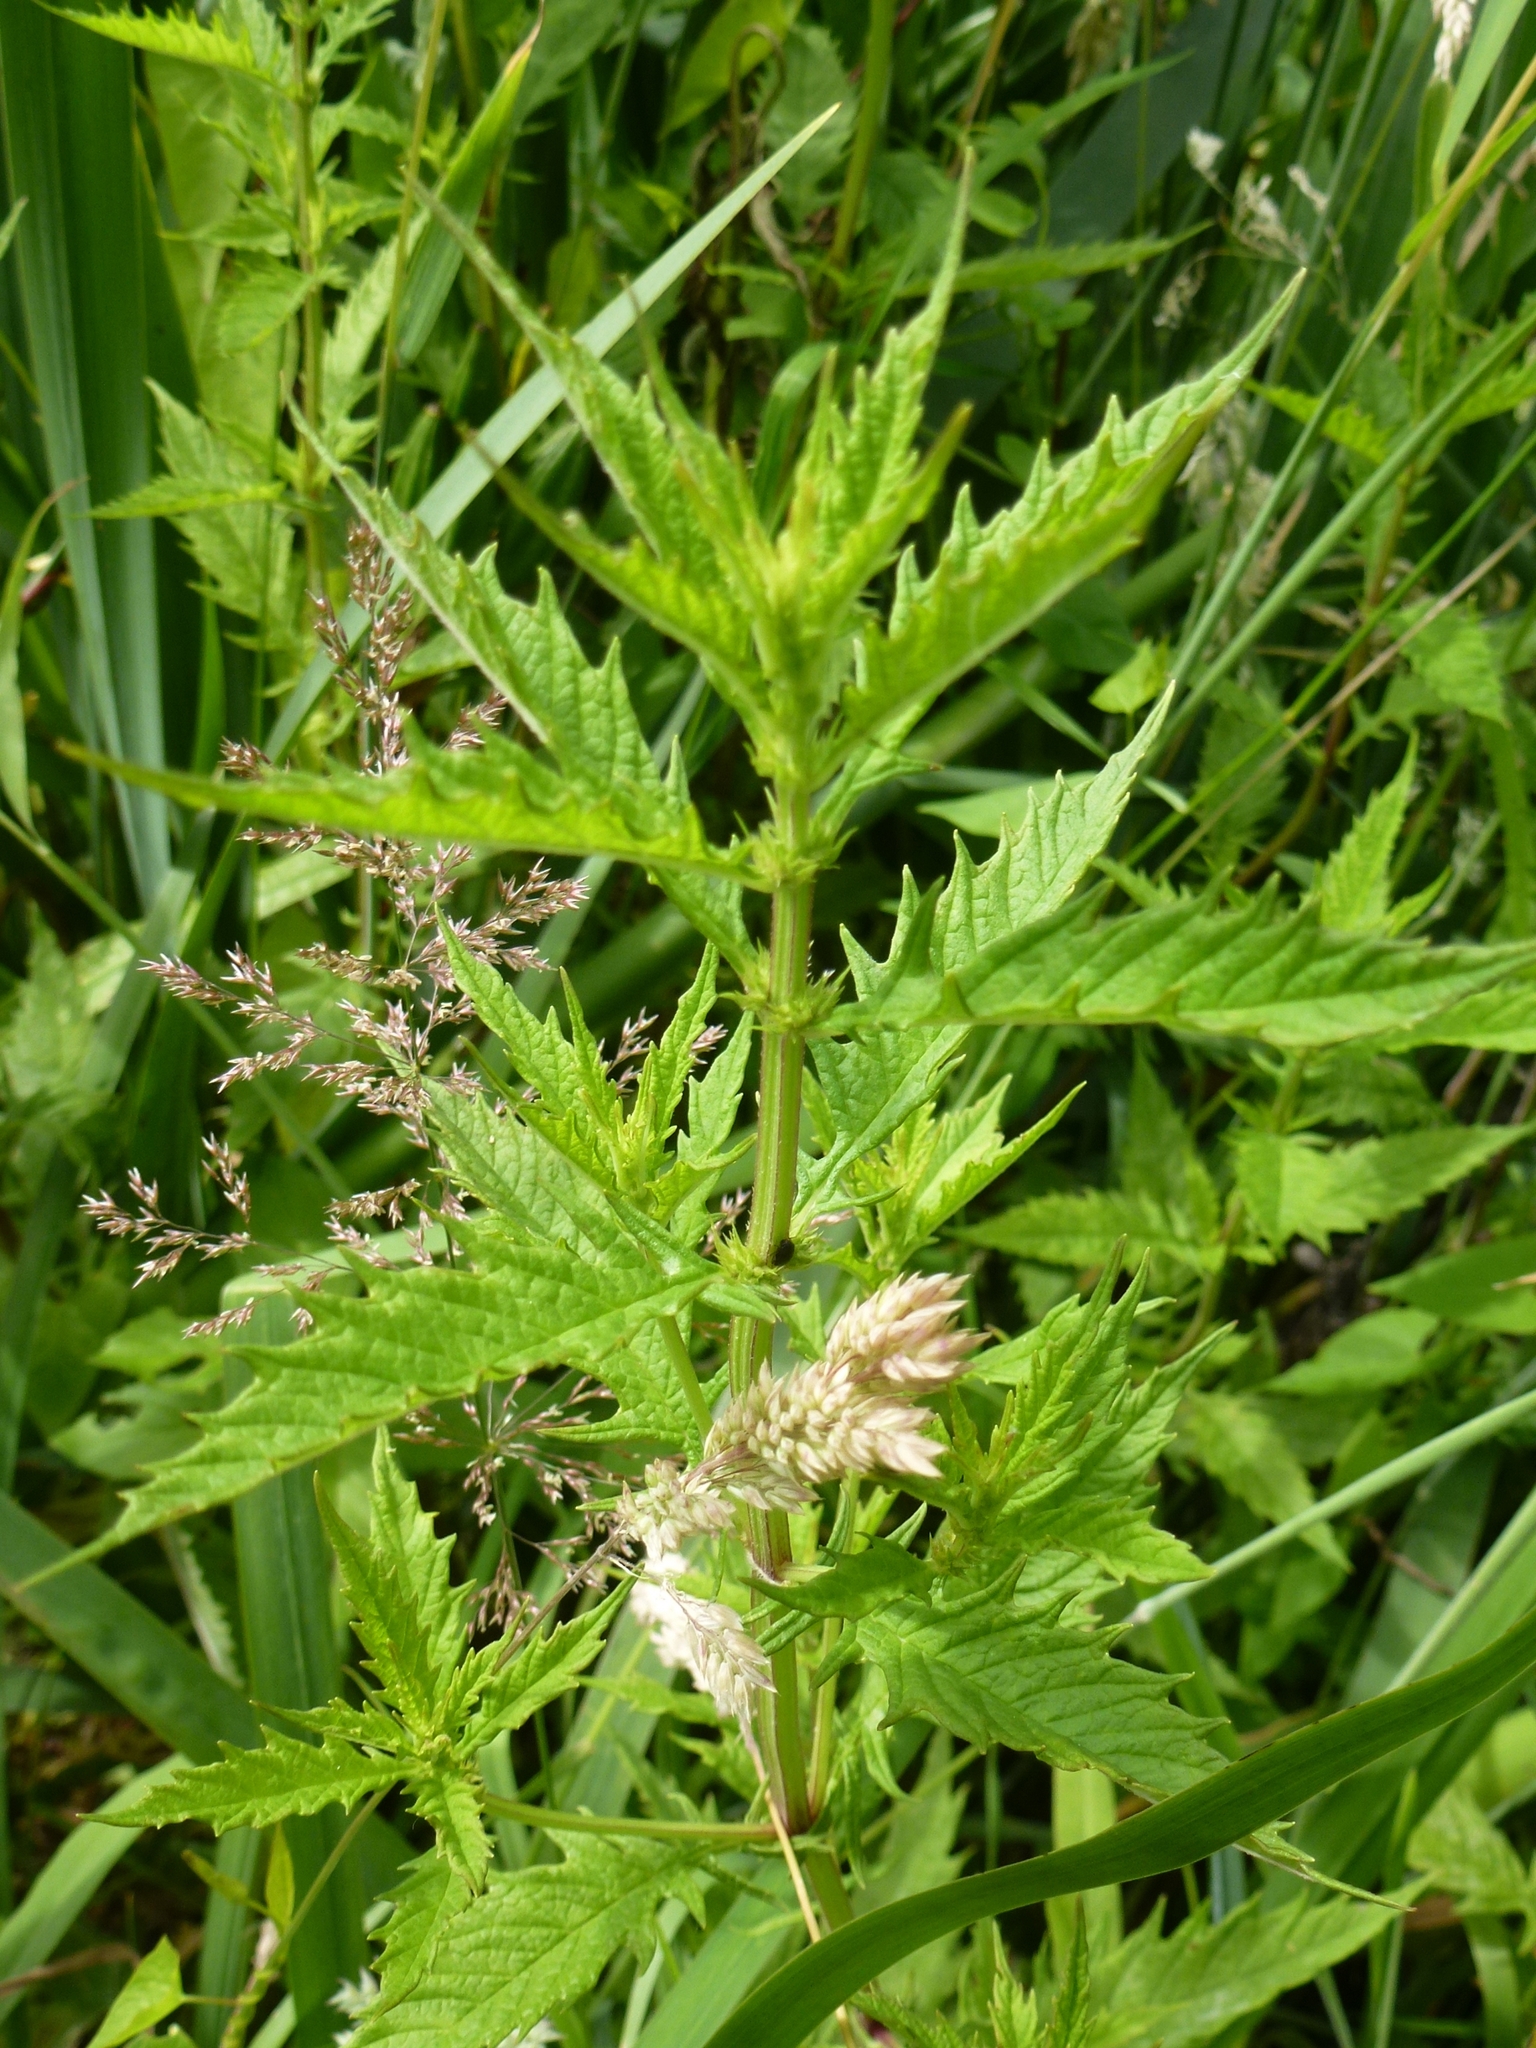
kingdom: Plantae
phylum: Tracheophyta
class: Magnoliopsida
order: Lamiales
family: Lamiaceae
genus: Lycopus
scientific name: Lycopus europaeus
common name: European bugleweed
